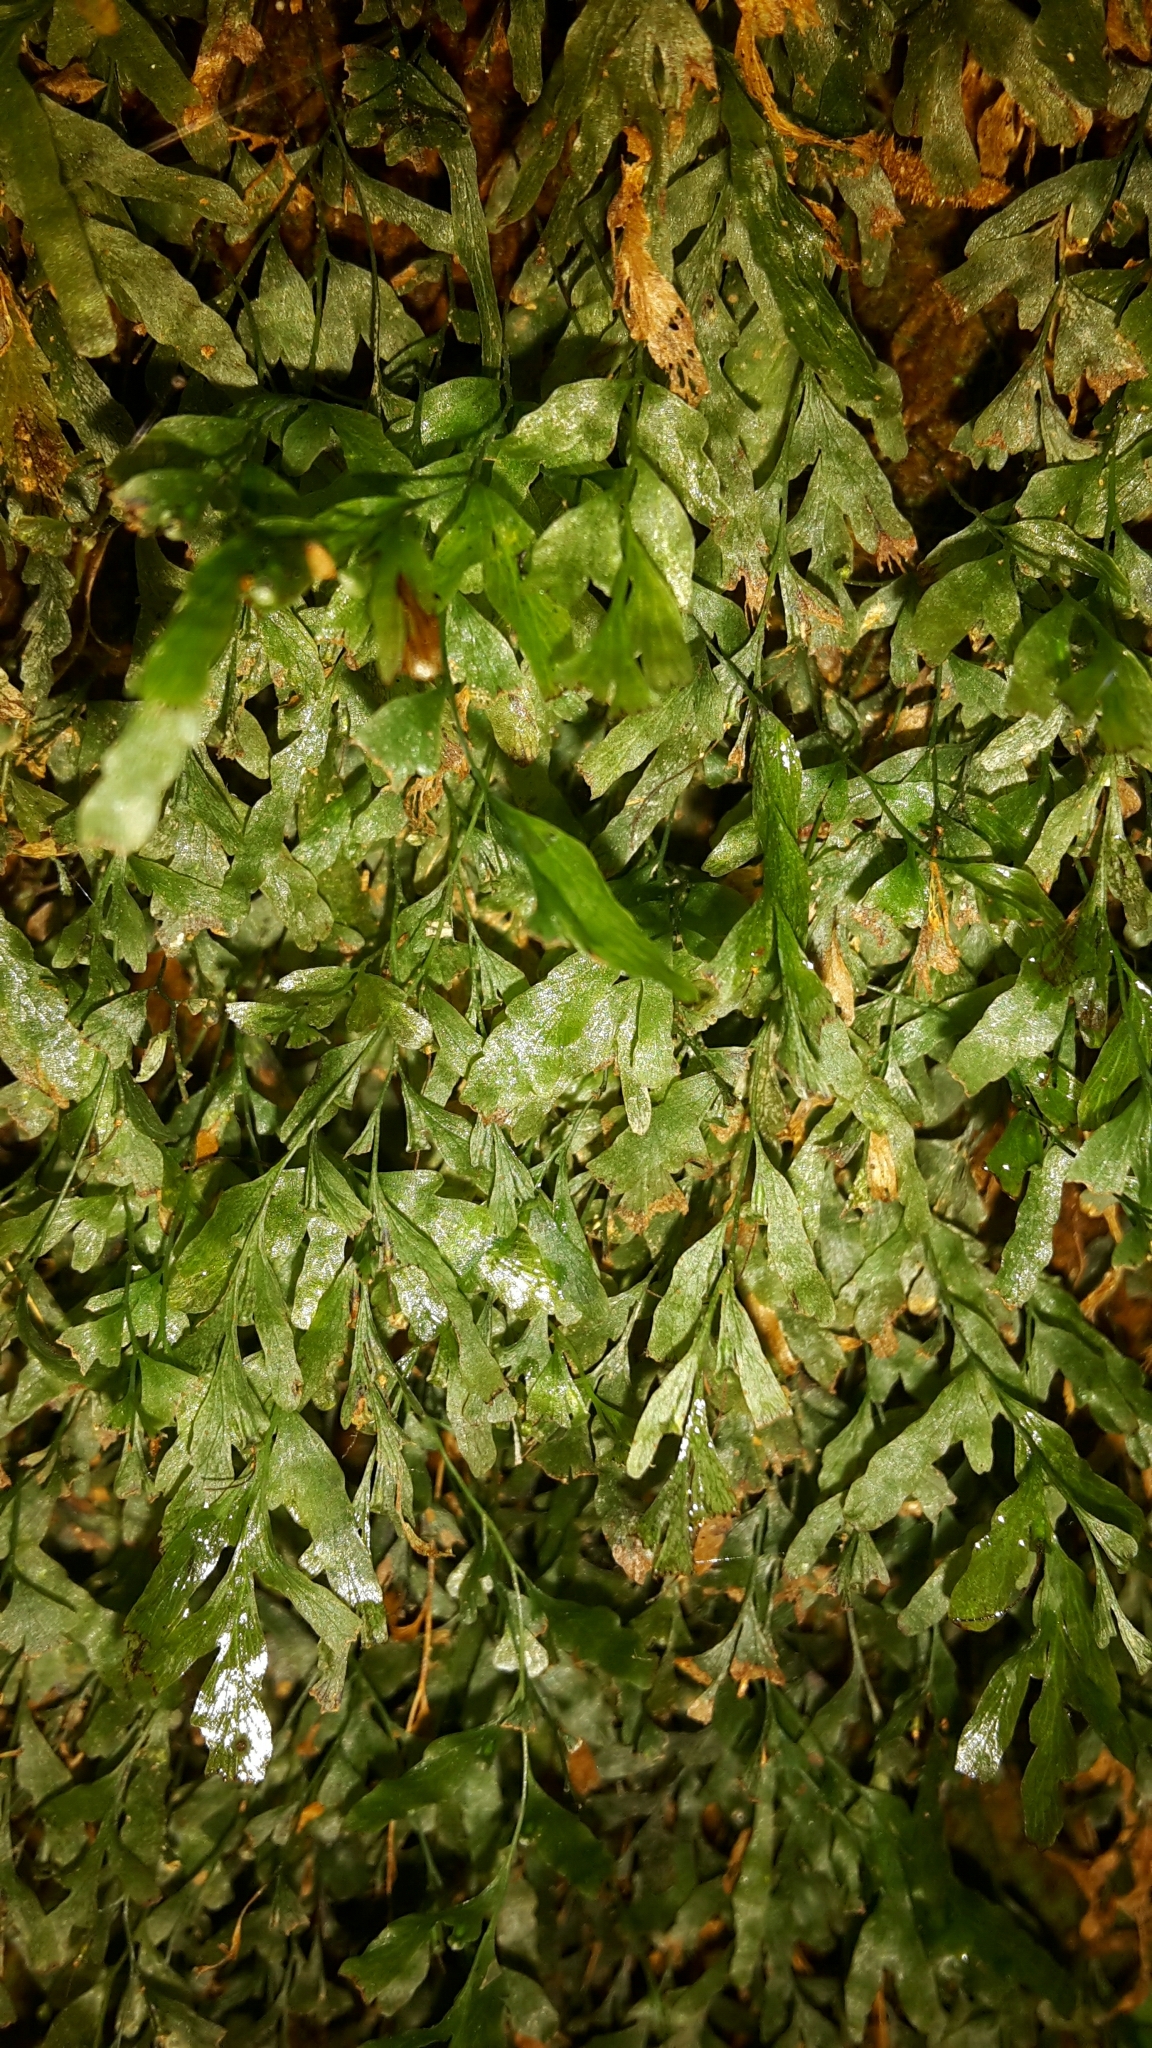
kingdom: Plantae
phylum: Tracheophyta
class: Polypodiopsida
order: Hymenophyllales
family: Hymenophyllaceae
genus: Polyphlebium
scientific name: Polyphlebium venosum
